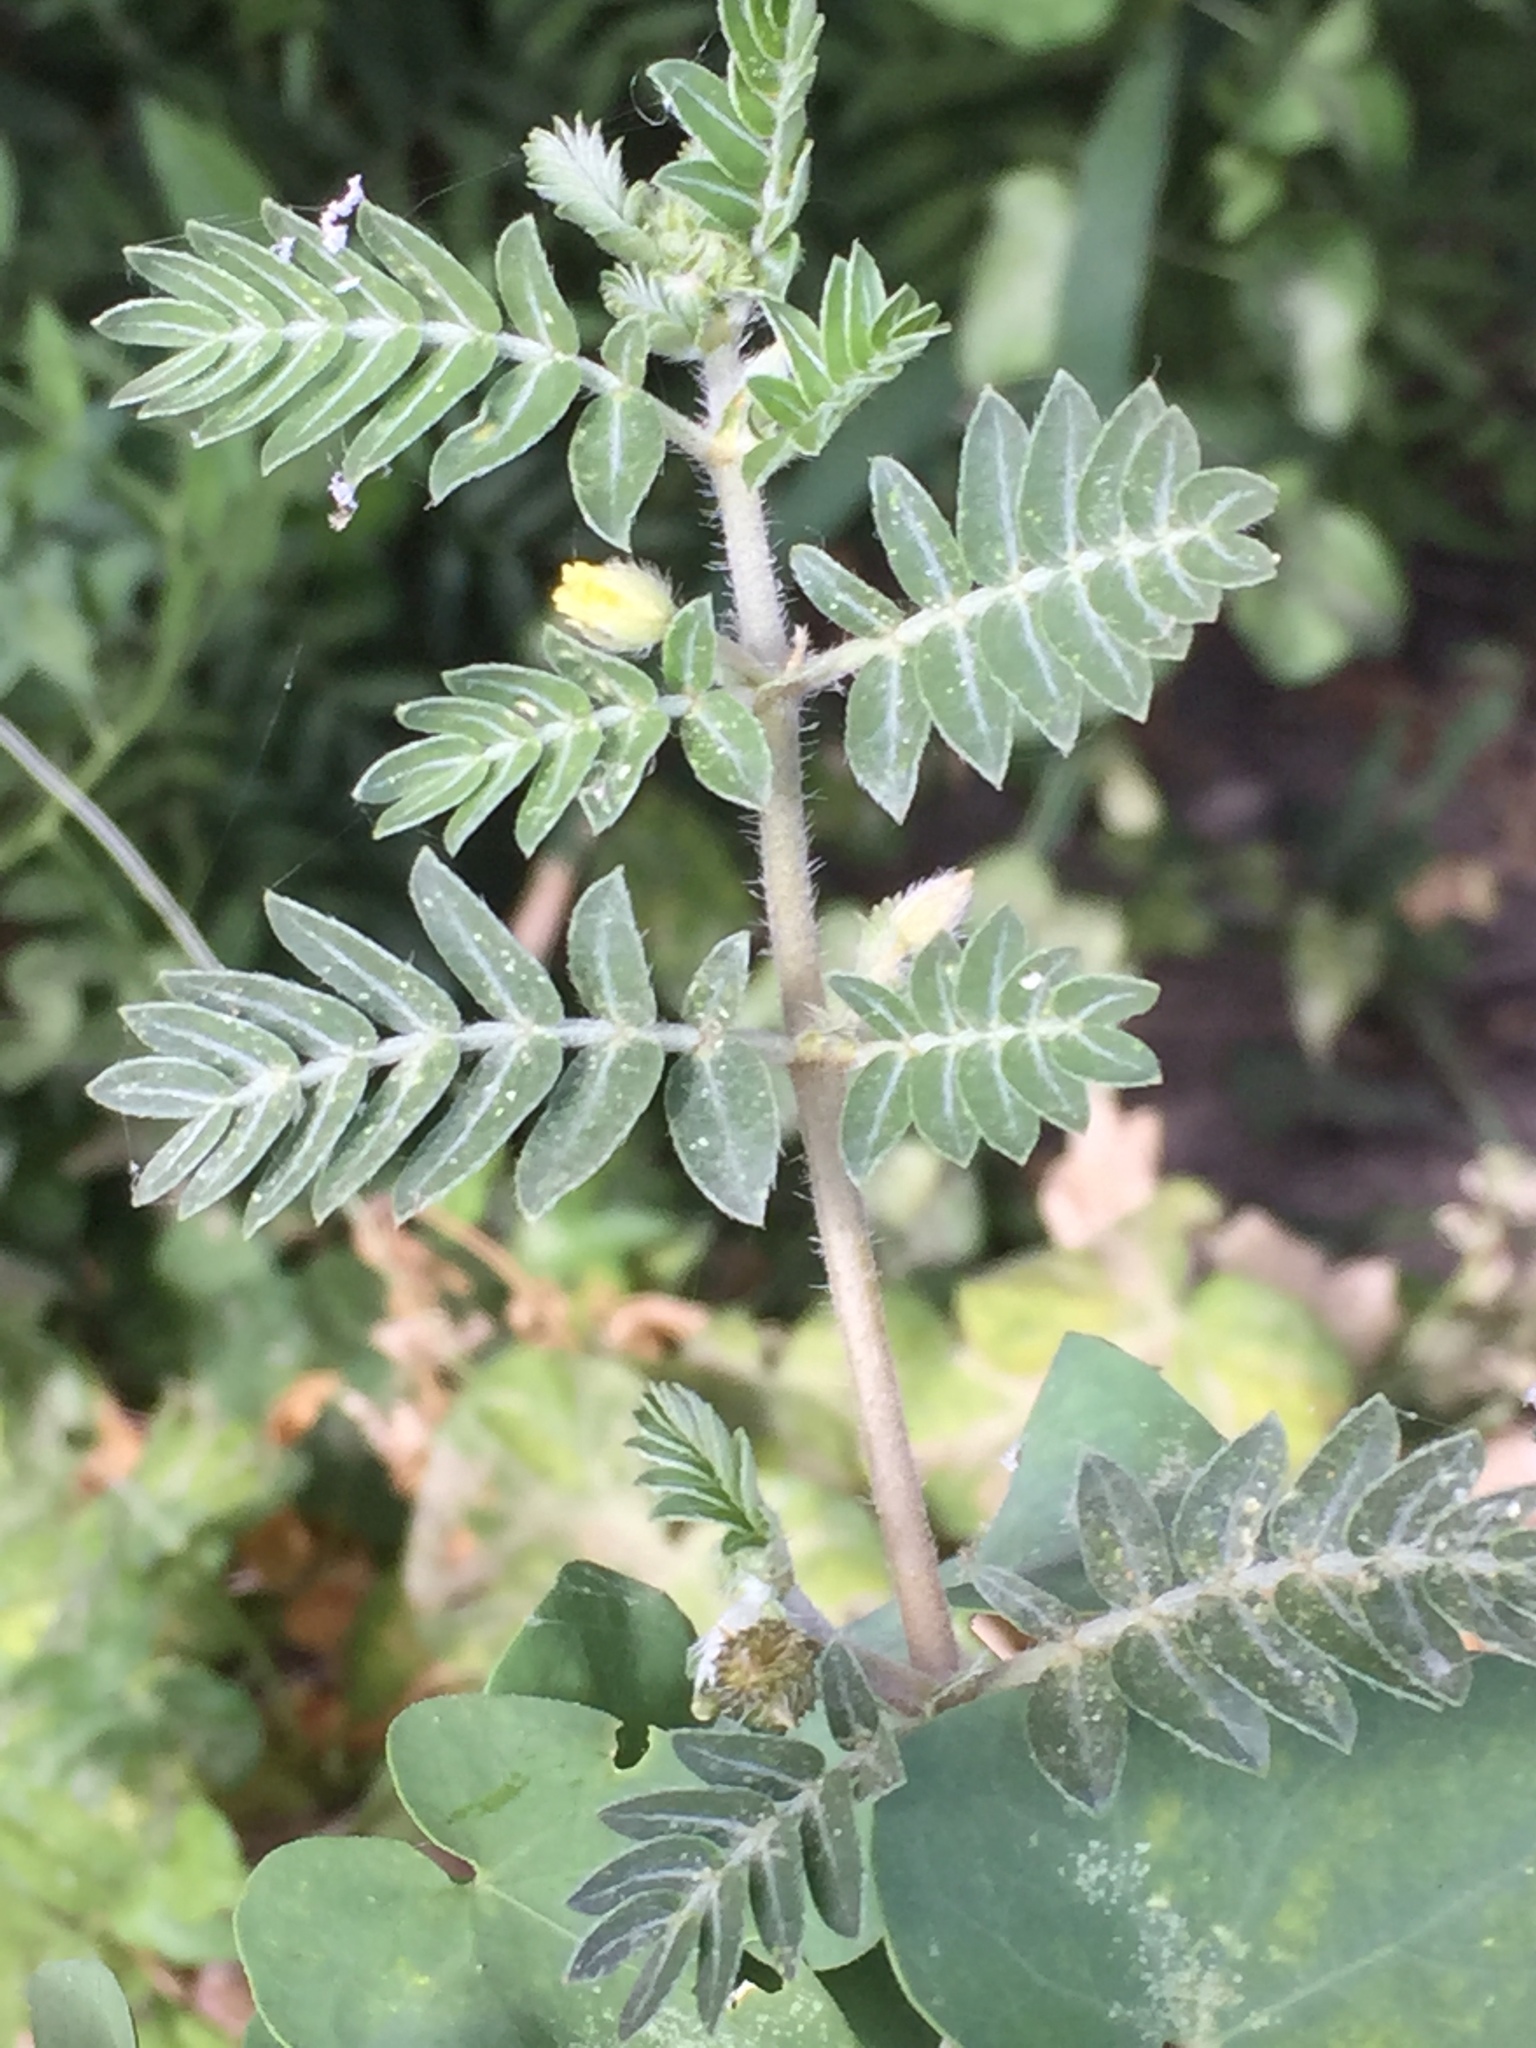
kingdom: Plantae
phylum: Tracheophyta
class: Magnoliopsida
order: Zygophyllales
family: Zygophyllaceae
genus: Tribulus
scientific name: Tribulus terrestris
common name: Puncturevine
